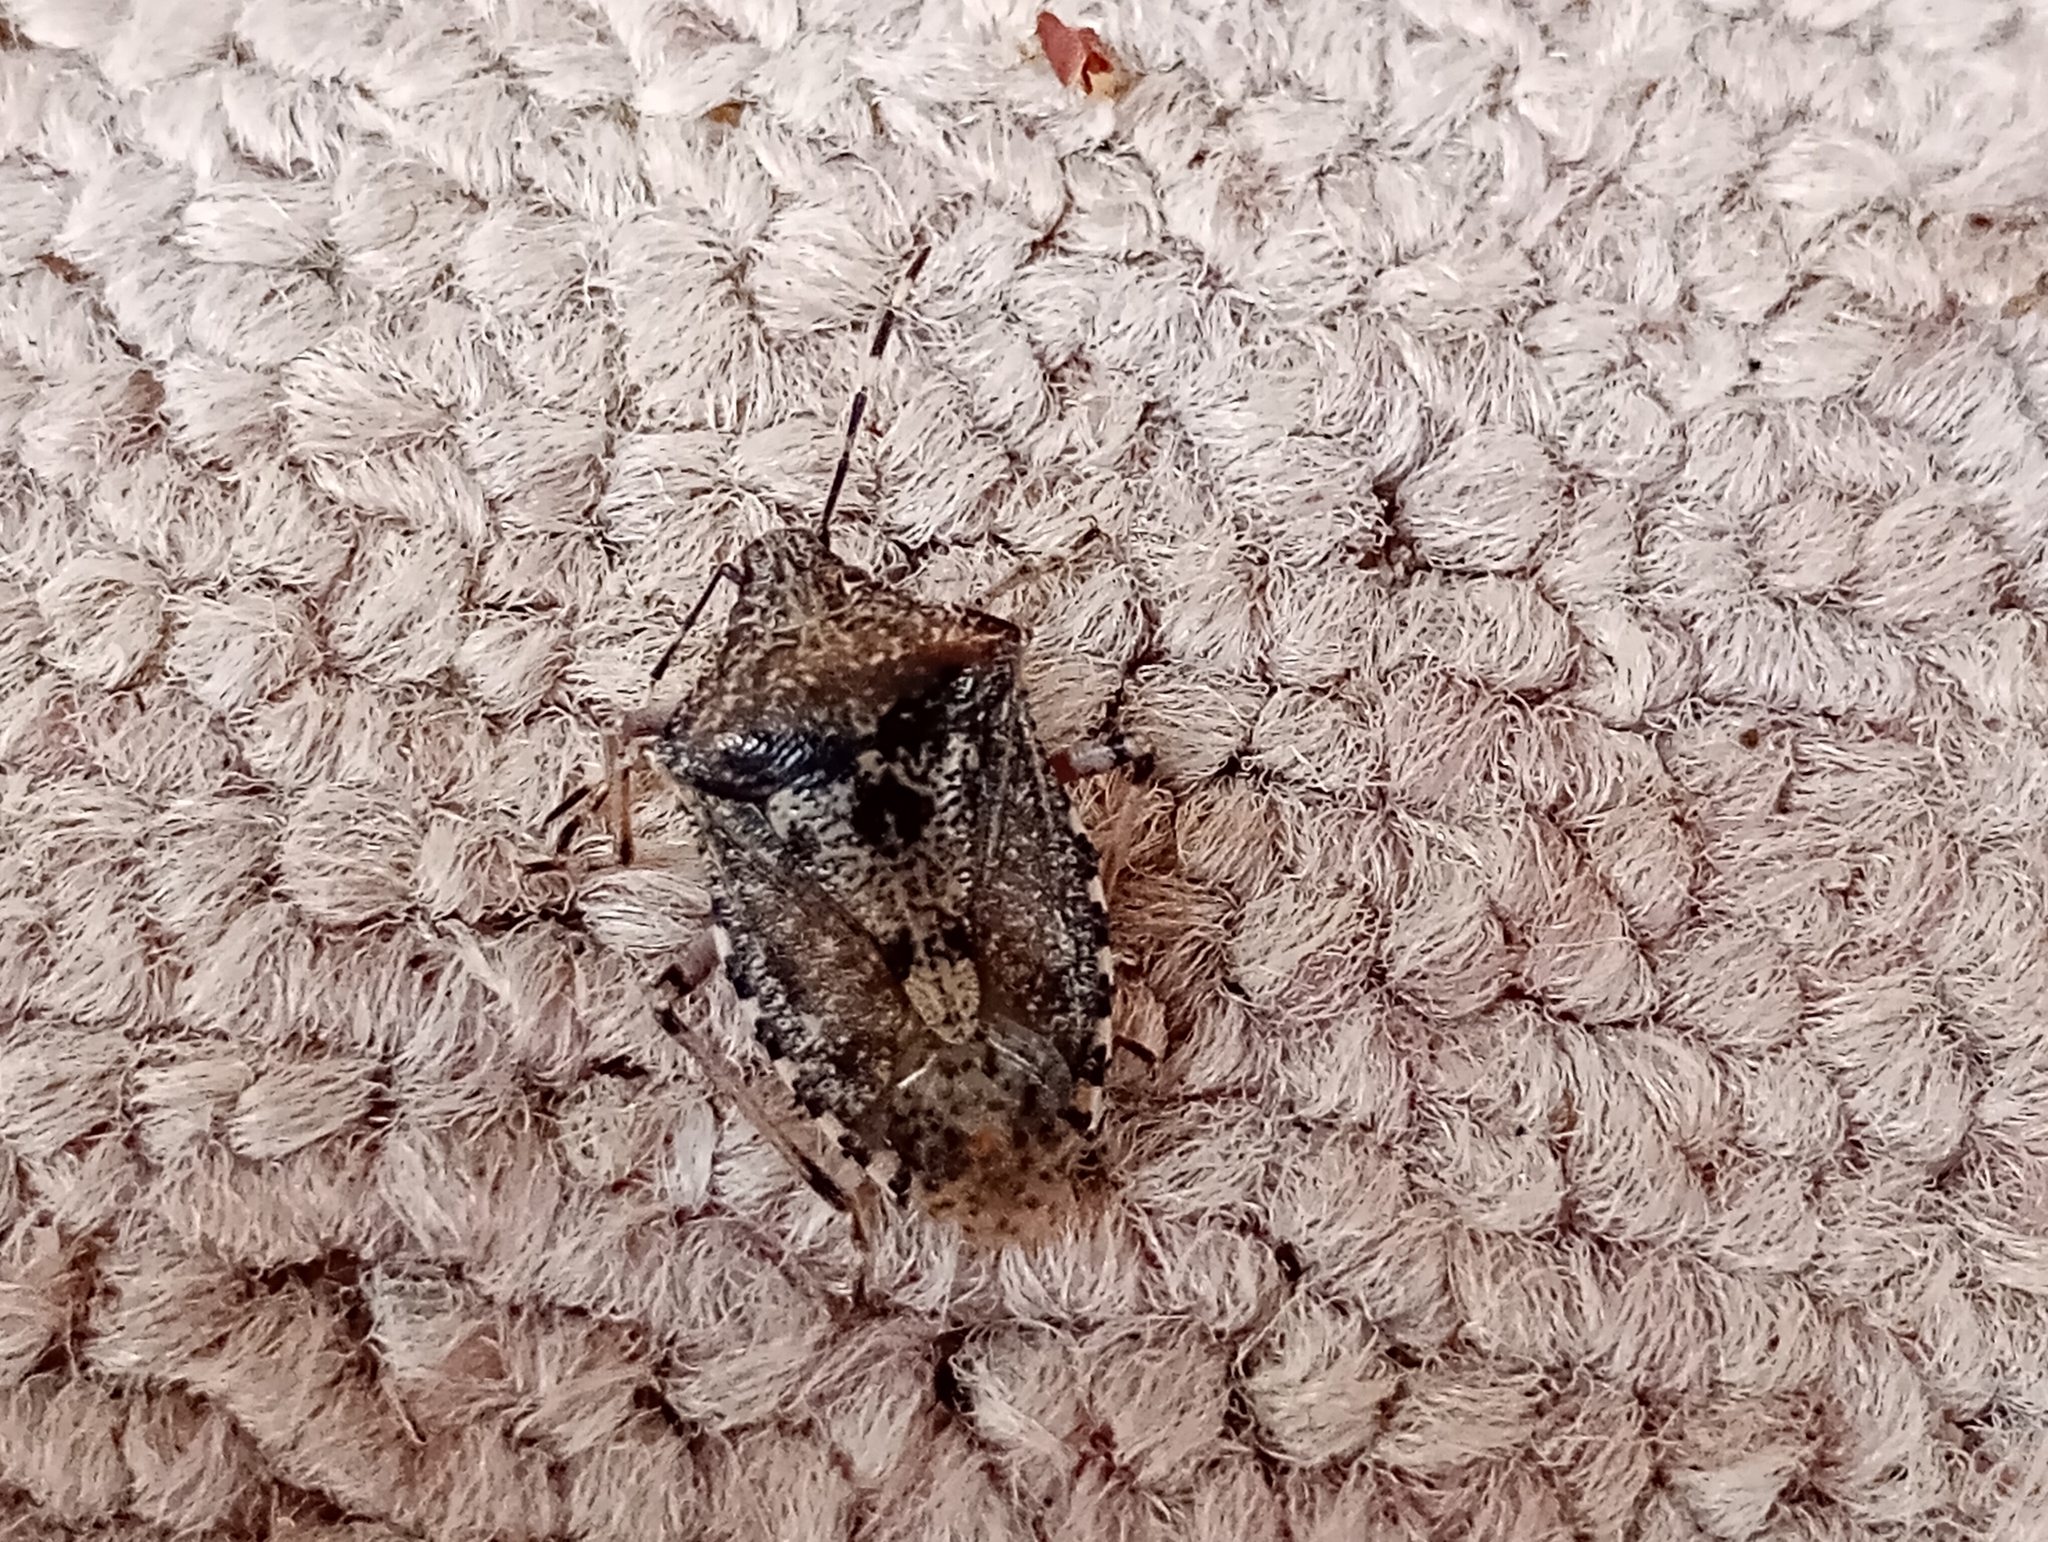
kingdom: Animalia
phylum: Arthropoda
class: Insecta
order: Hemiptera
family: Pentatomidae
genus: Rhaphigaster
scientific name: Rhaphigaster nebulosa
